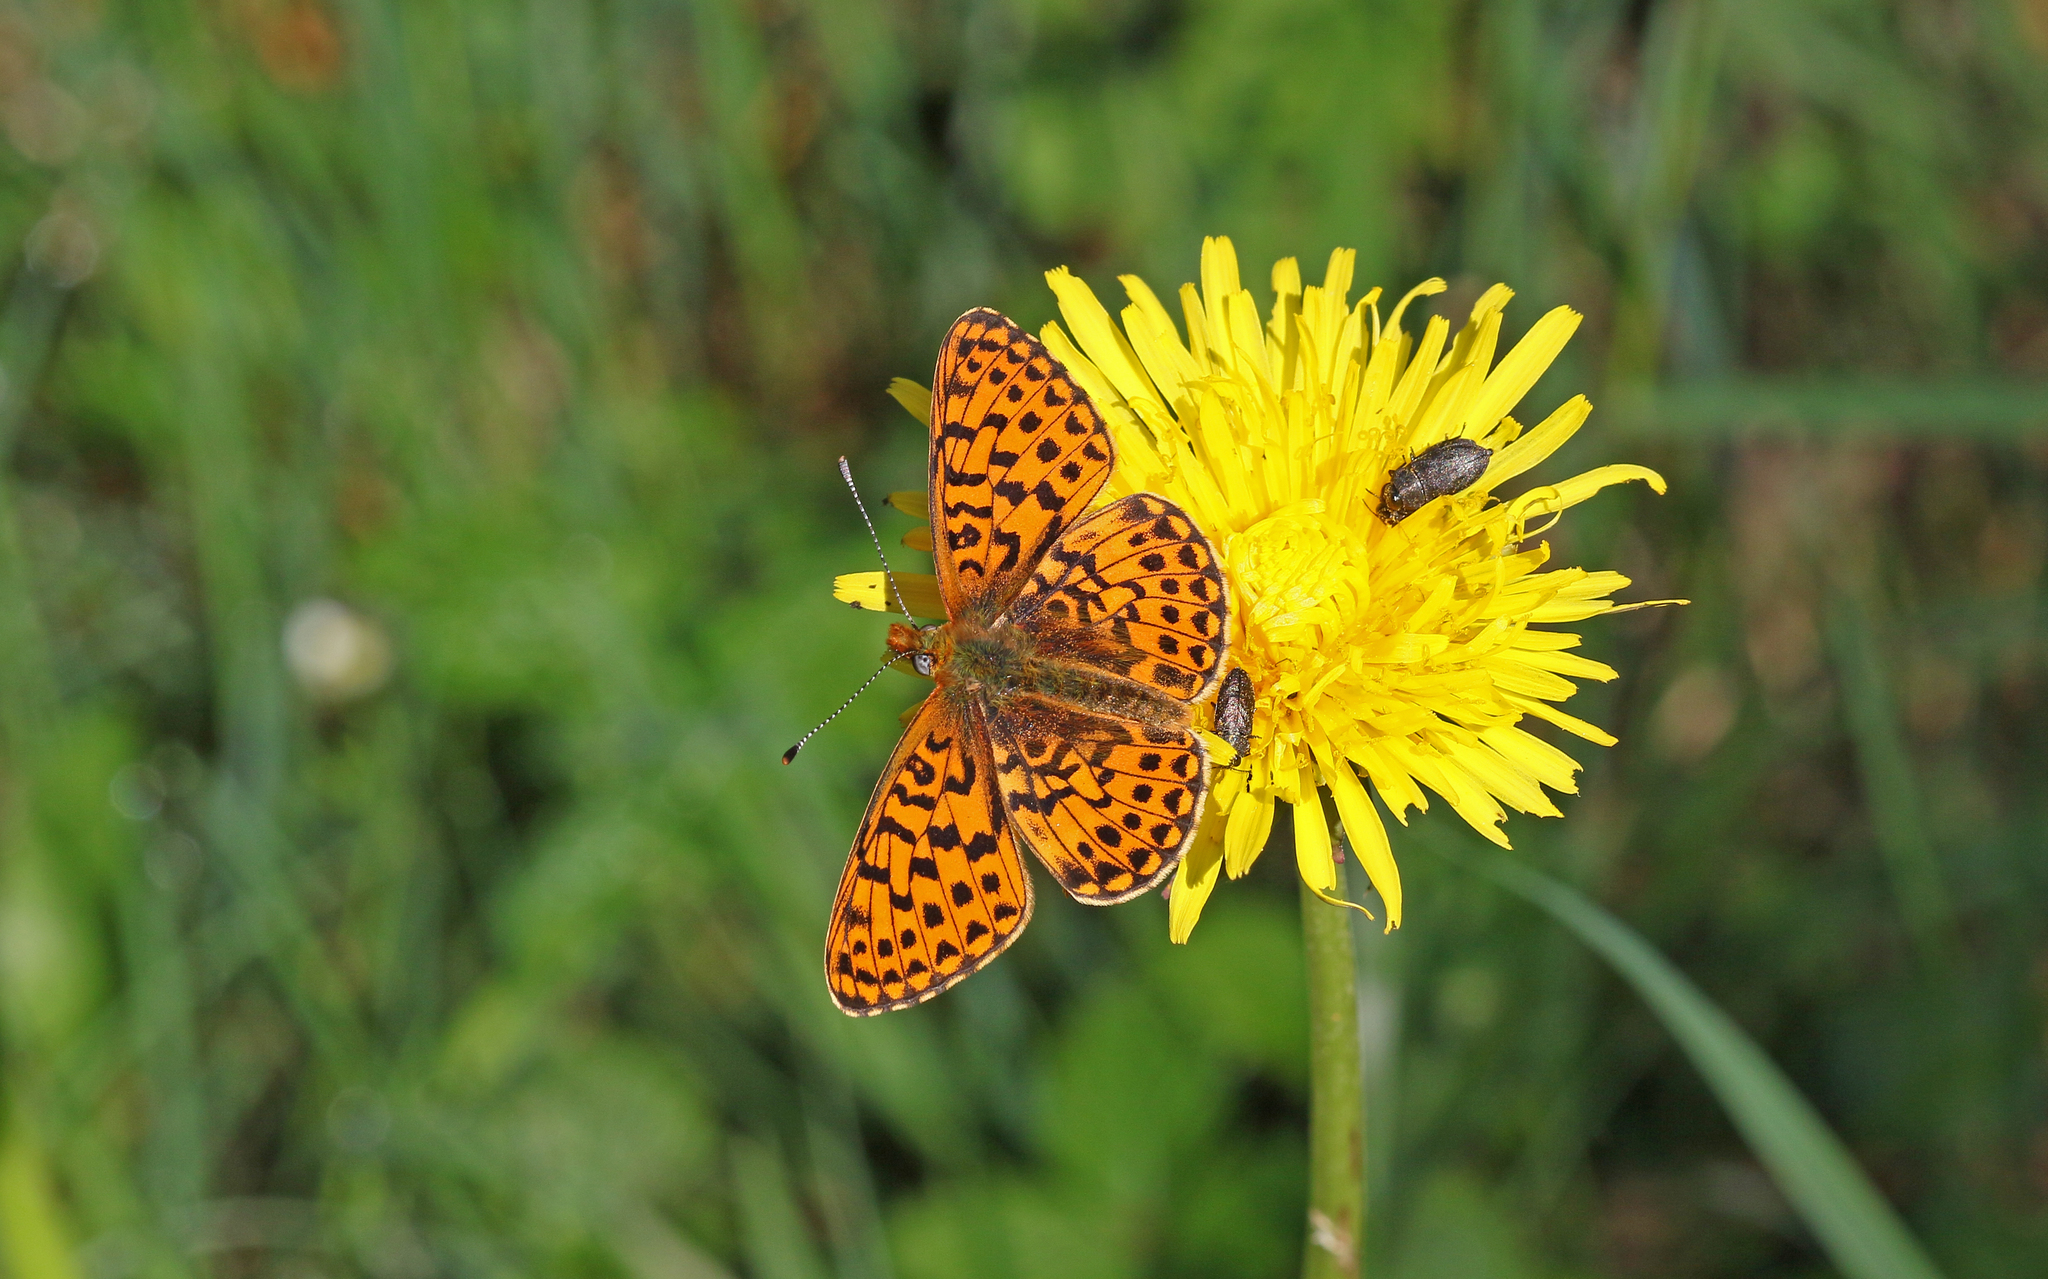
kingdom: Animalia
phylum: Arthropoda
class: Insecta
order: Lepidoptera
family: Nymphalidae
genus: Clossiana
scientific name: Clossiana euphrosyne
